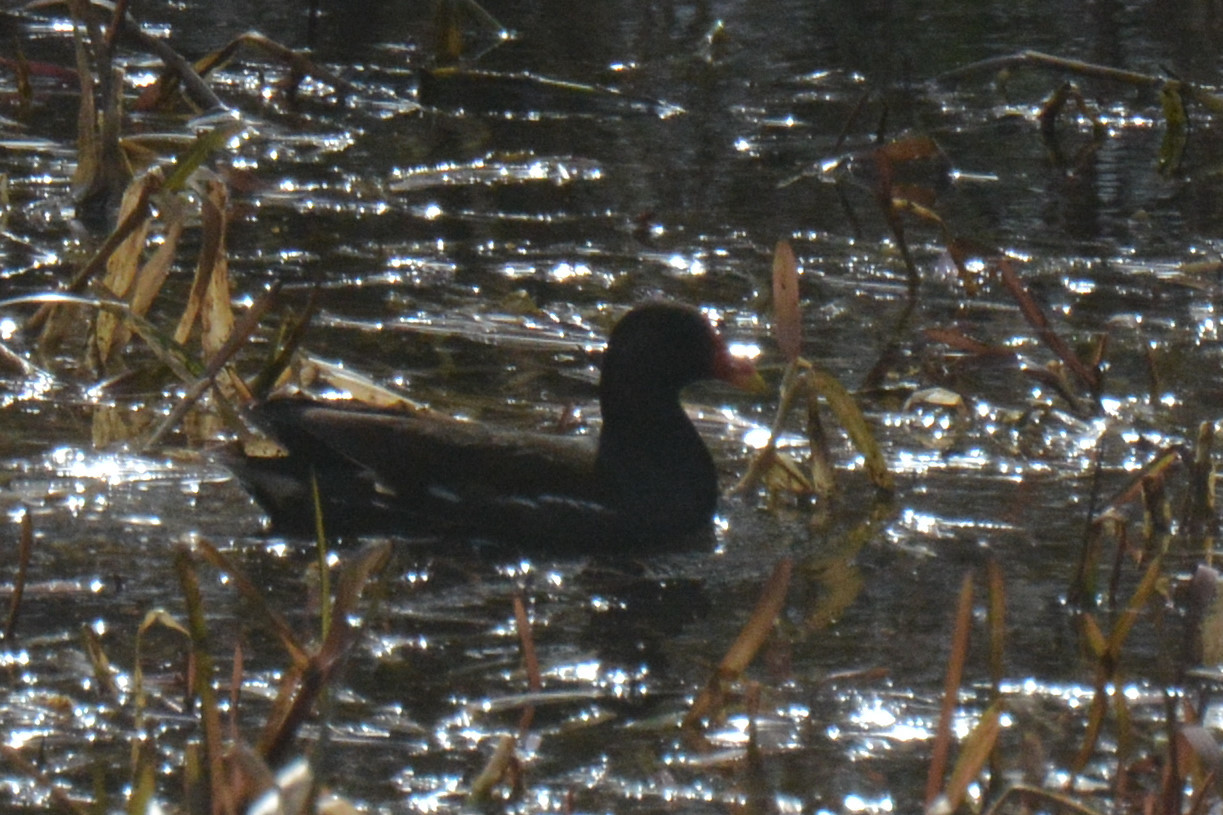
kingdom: Animalia
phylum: Chordata
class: Aves
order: Gruiformes
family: Rallidae
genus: Gallinula
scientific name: Gallinula chloropus
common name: Common moorhen
